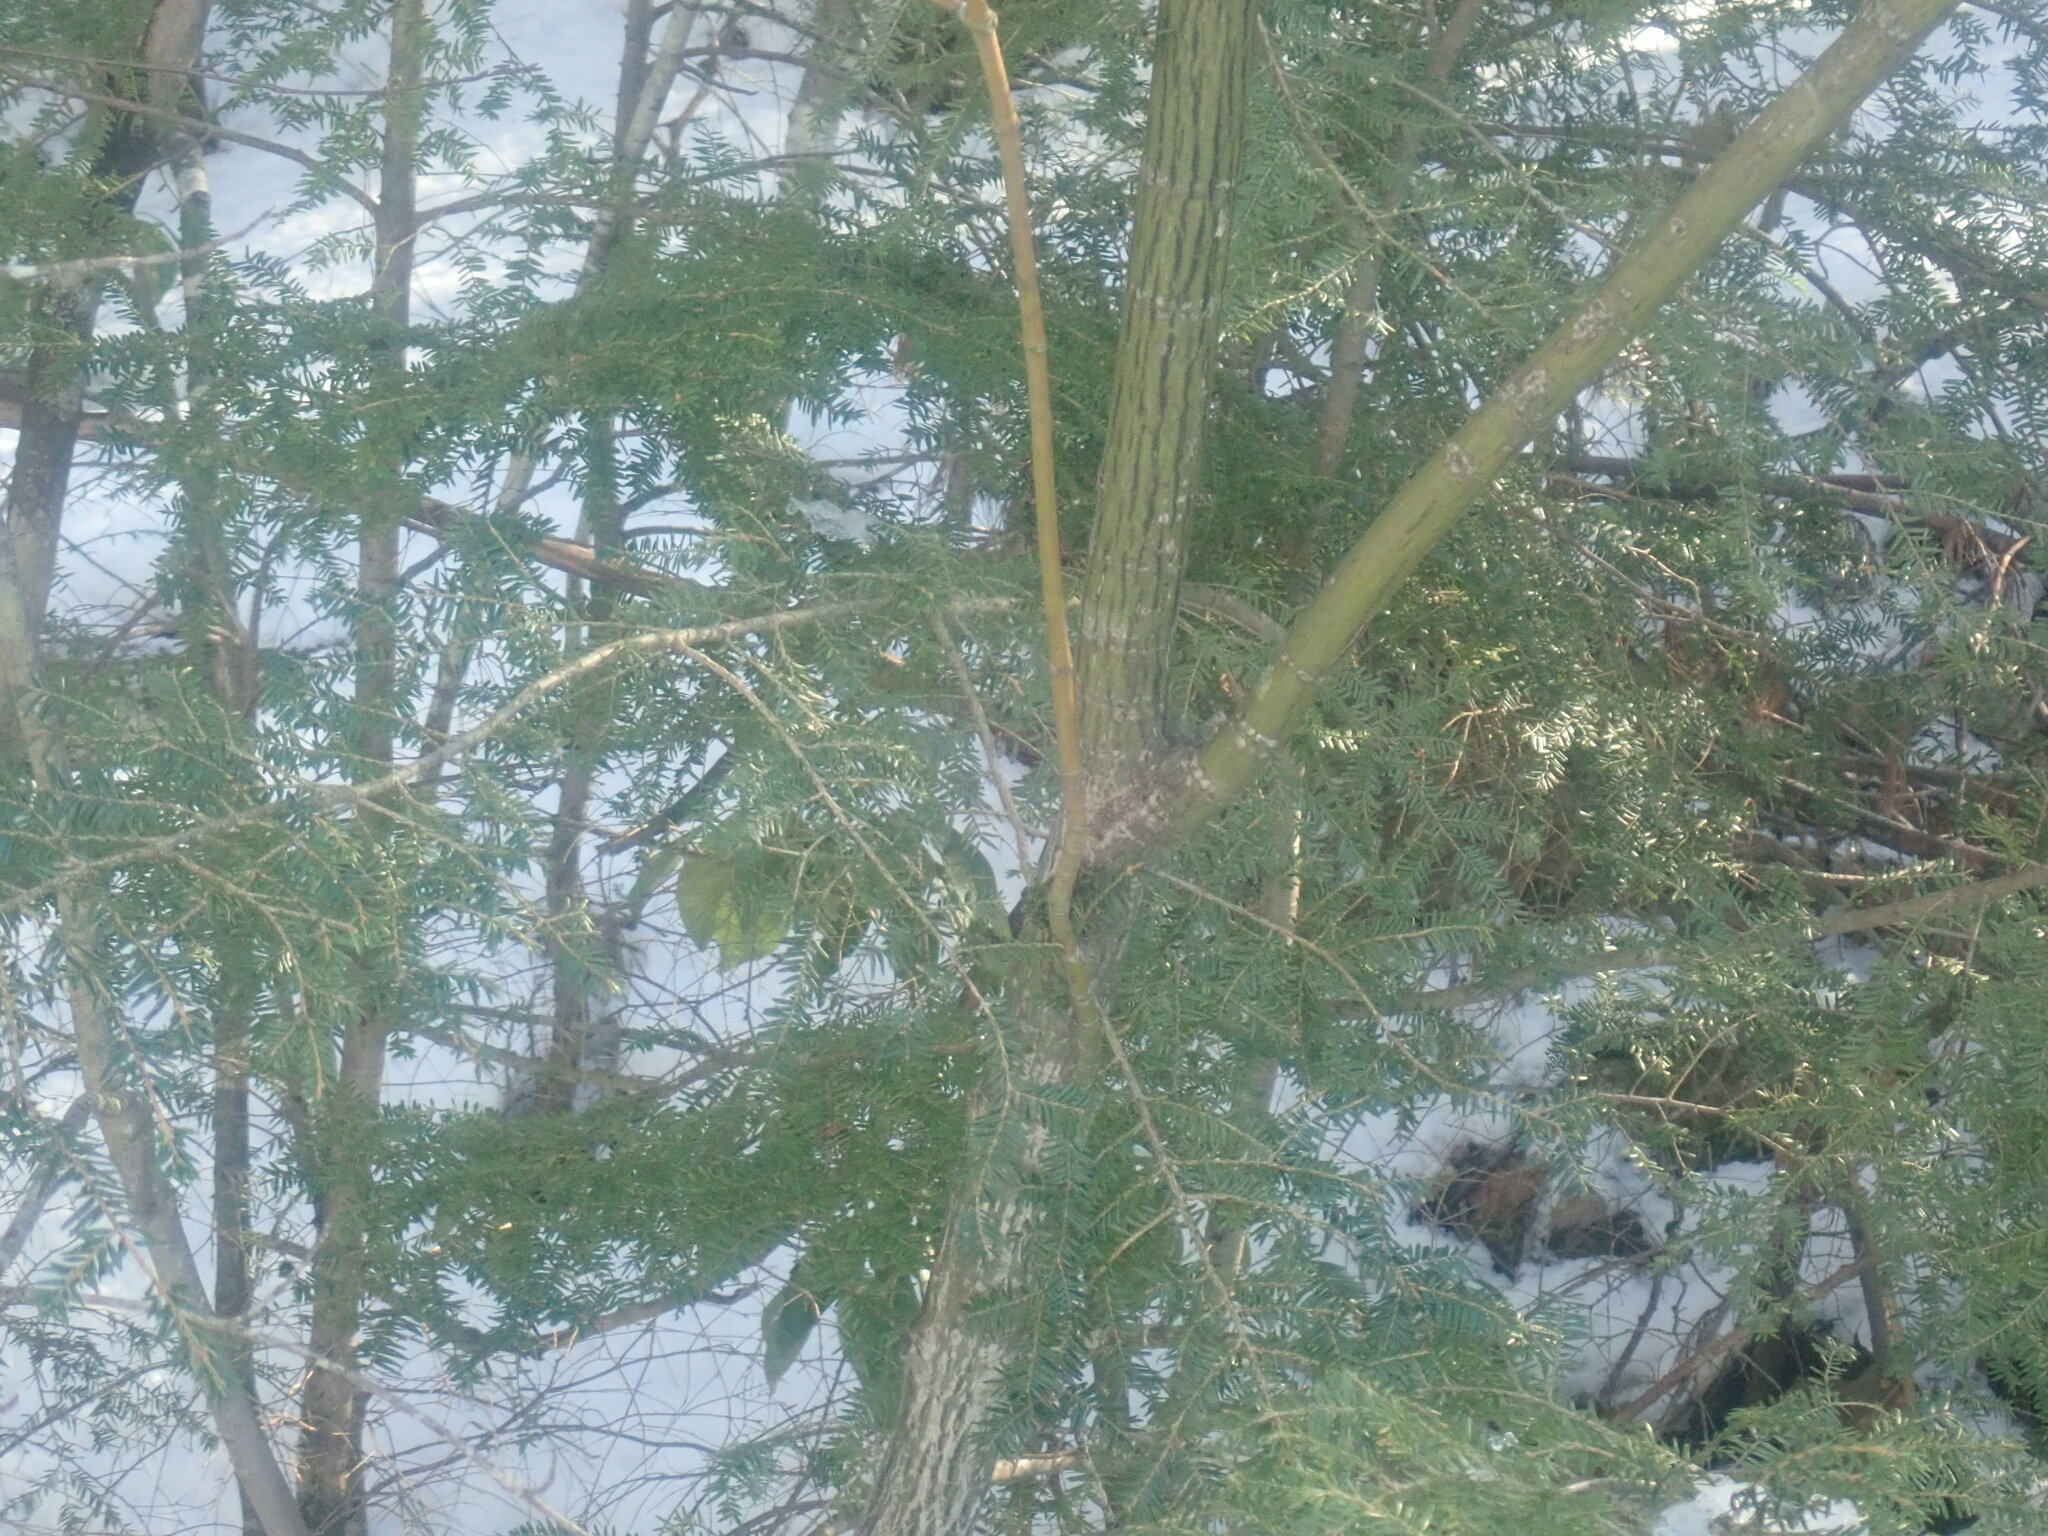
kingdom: Plantae
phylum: Tracheophyta
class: Magnoliopsida
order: Sapindales
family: Sapindaceae
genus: Acer
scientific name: Acer pensylvanicum
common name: Moosewood
